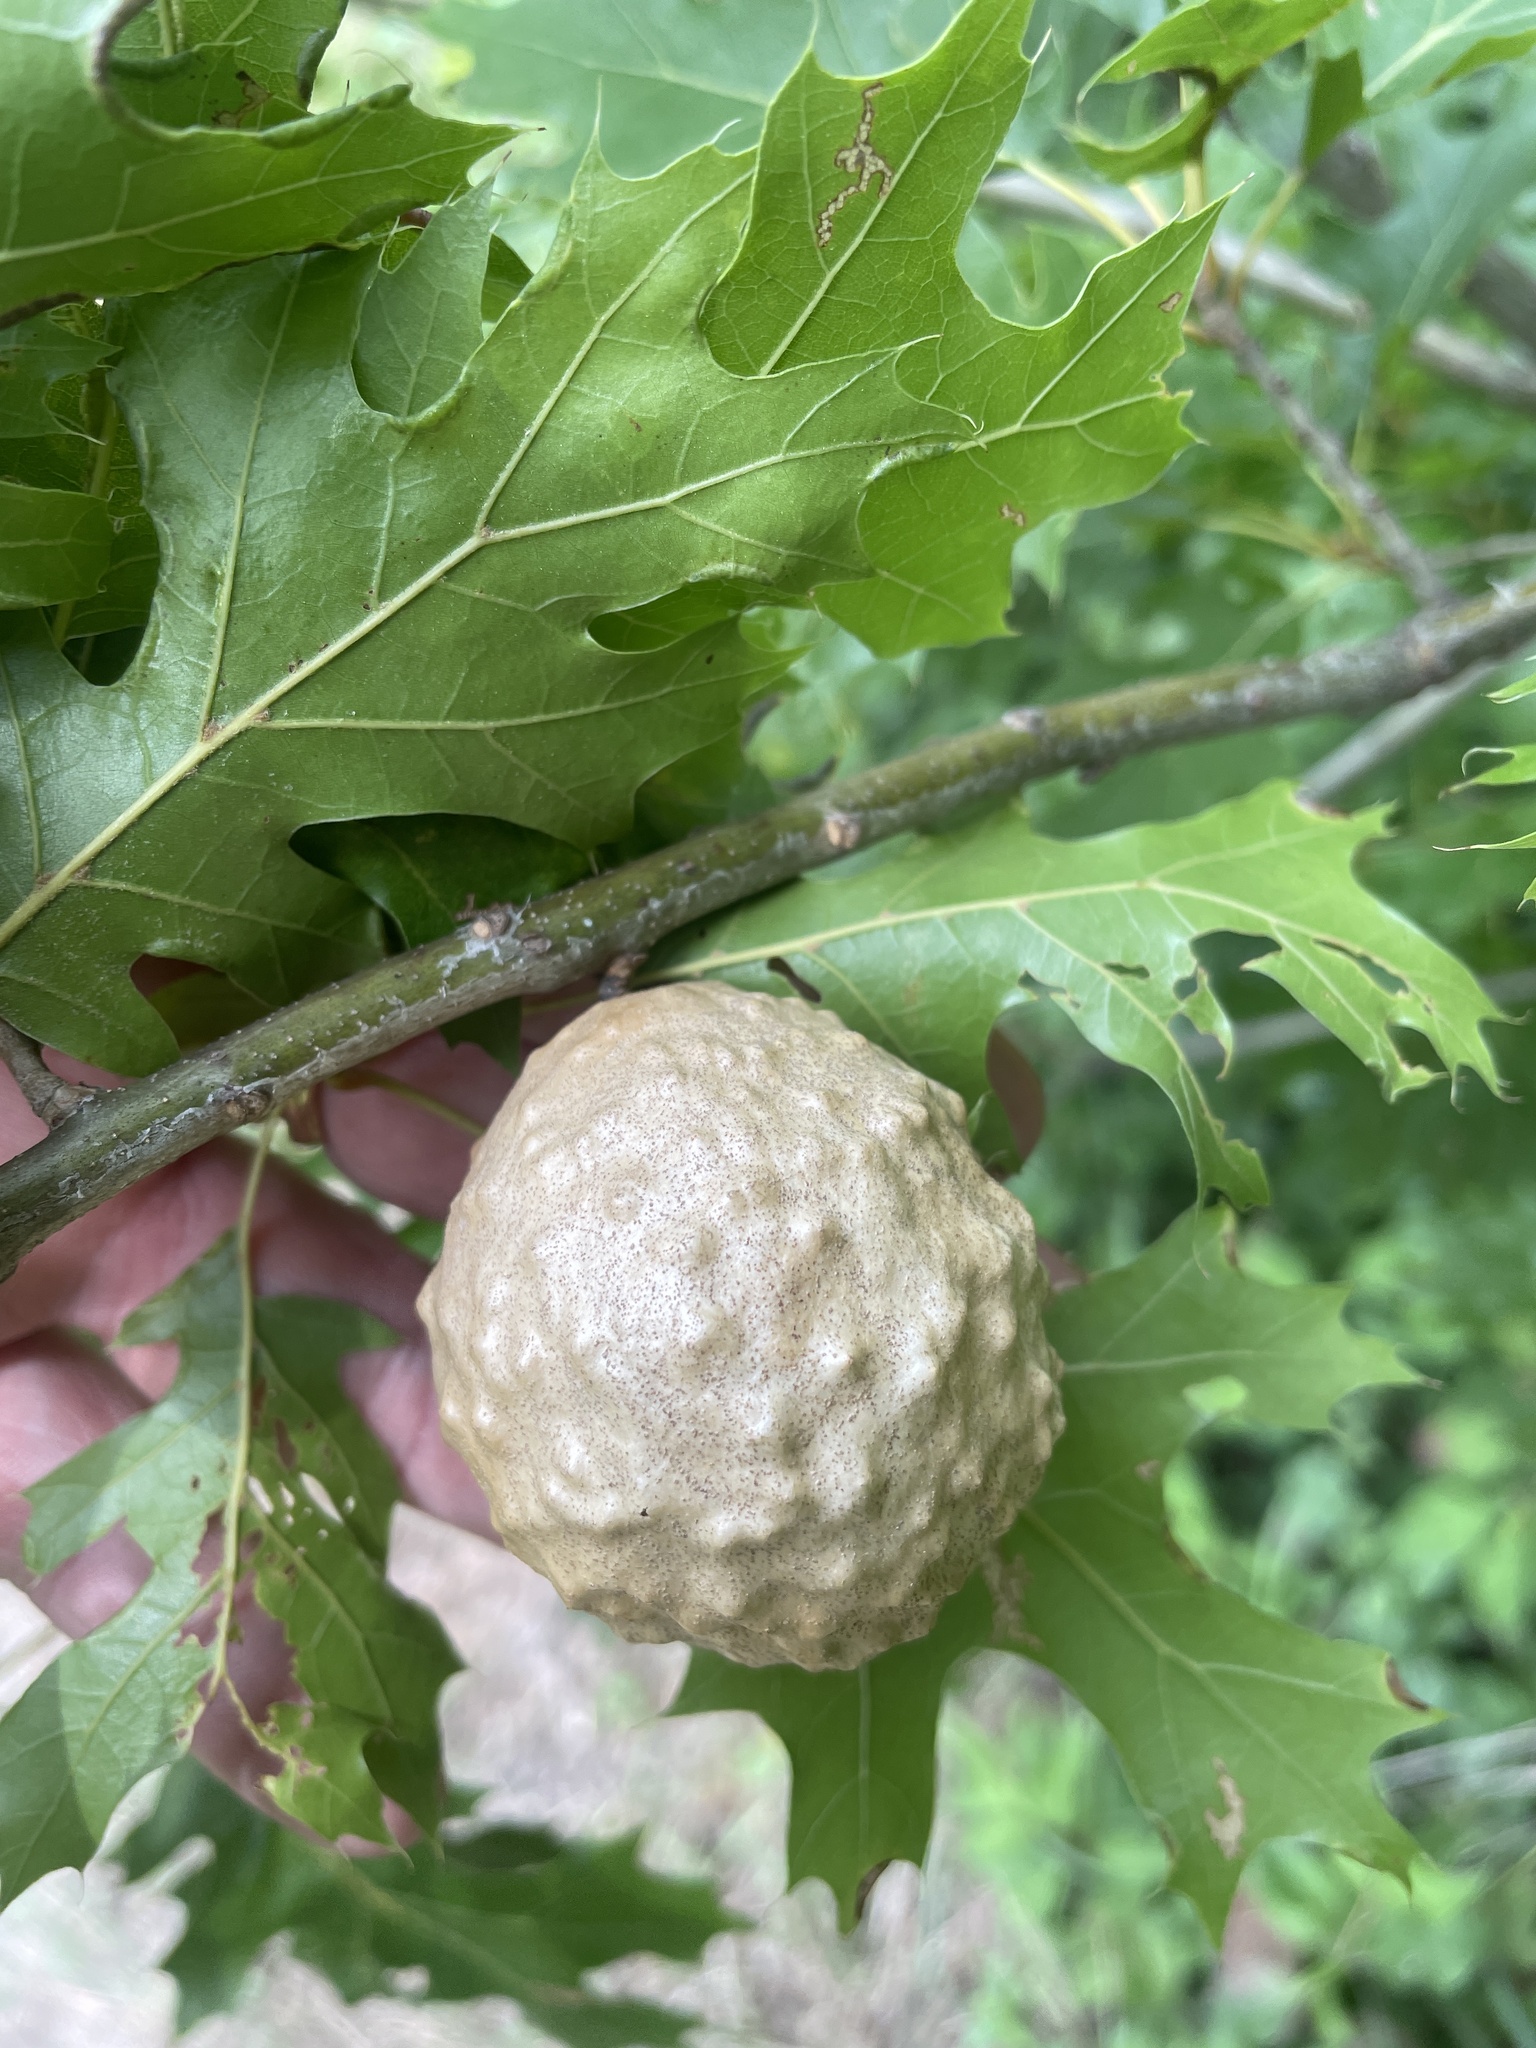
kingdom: Animalia
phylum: Arthropoda
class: Insecta
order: Hymenoptera
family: Cynipidae
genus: Amphibolips
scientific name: Amphibolips
